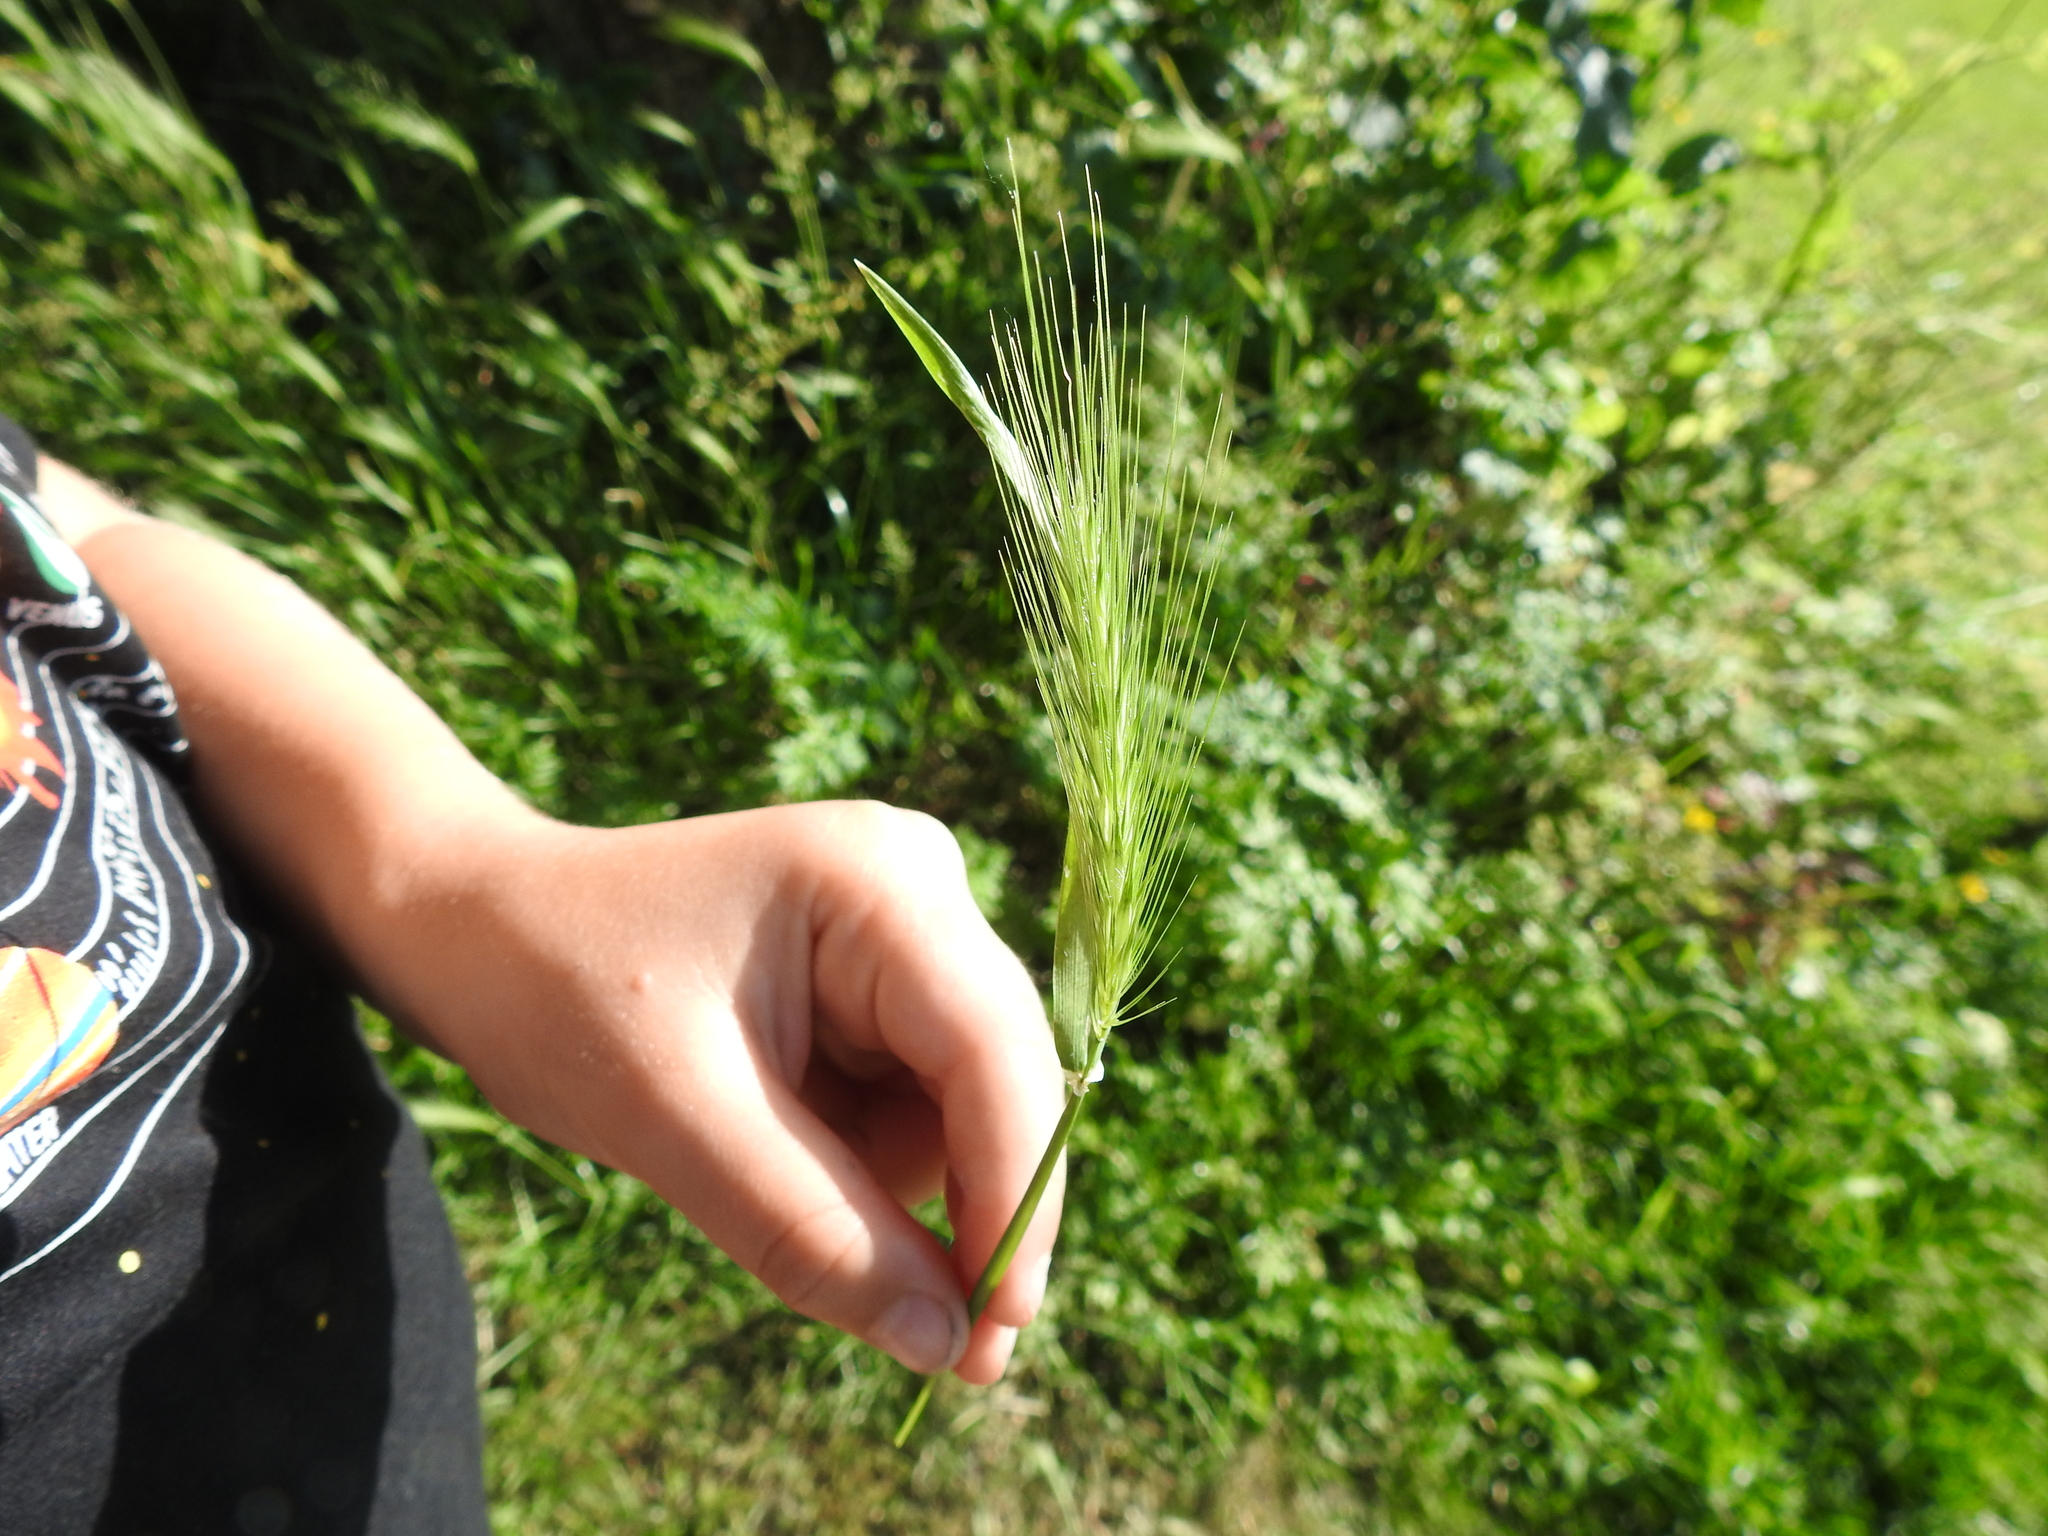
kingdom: Plantae
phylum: Tracheophyta
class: Liliopsida
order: Poales
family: Poaceae
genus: Hordeum
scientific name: Hordeum murinum
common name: Wall barley
